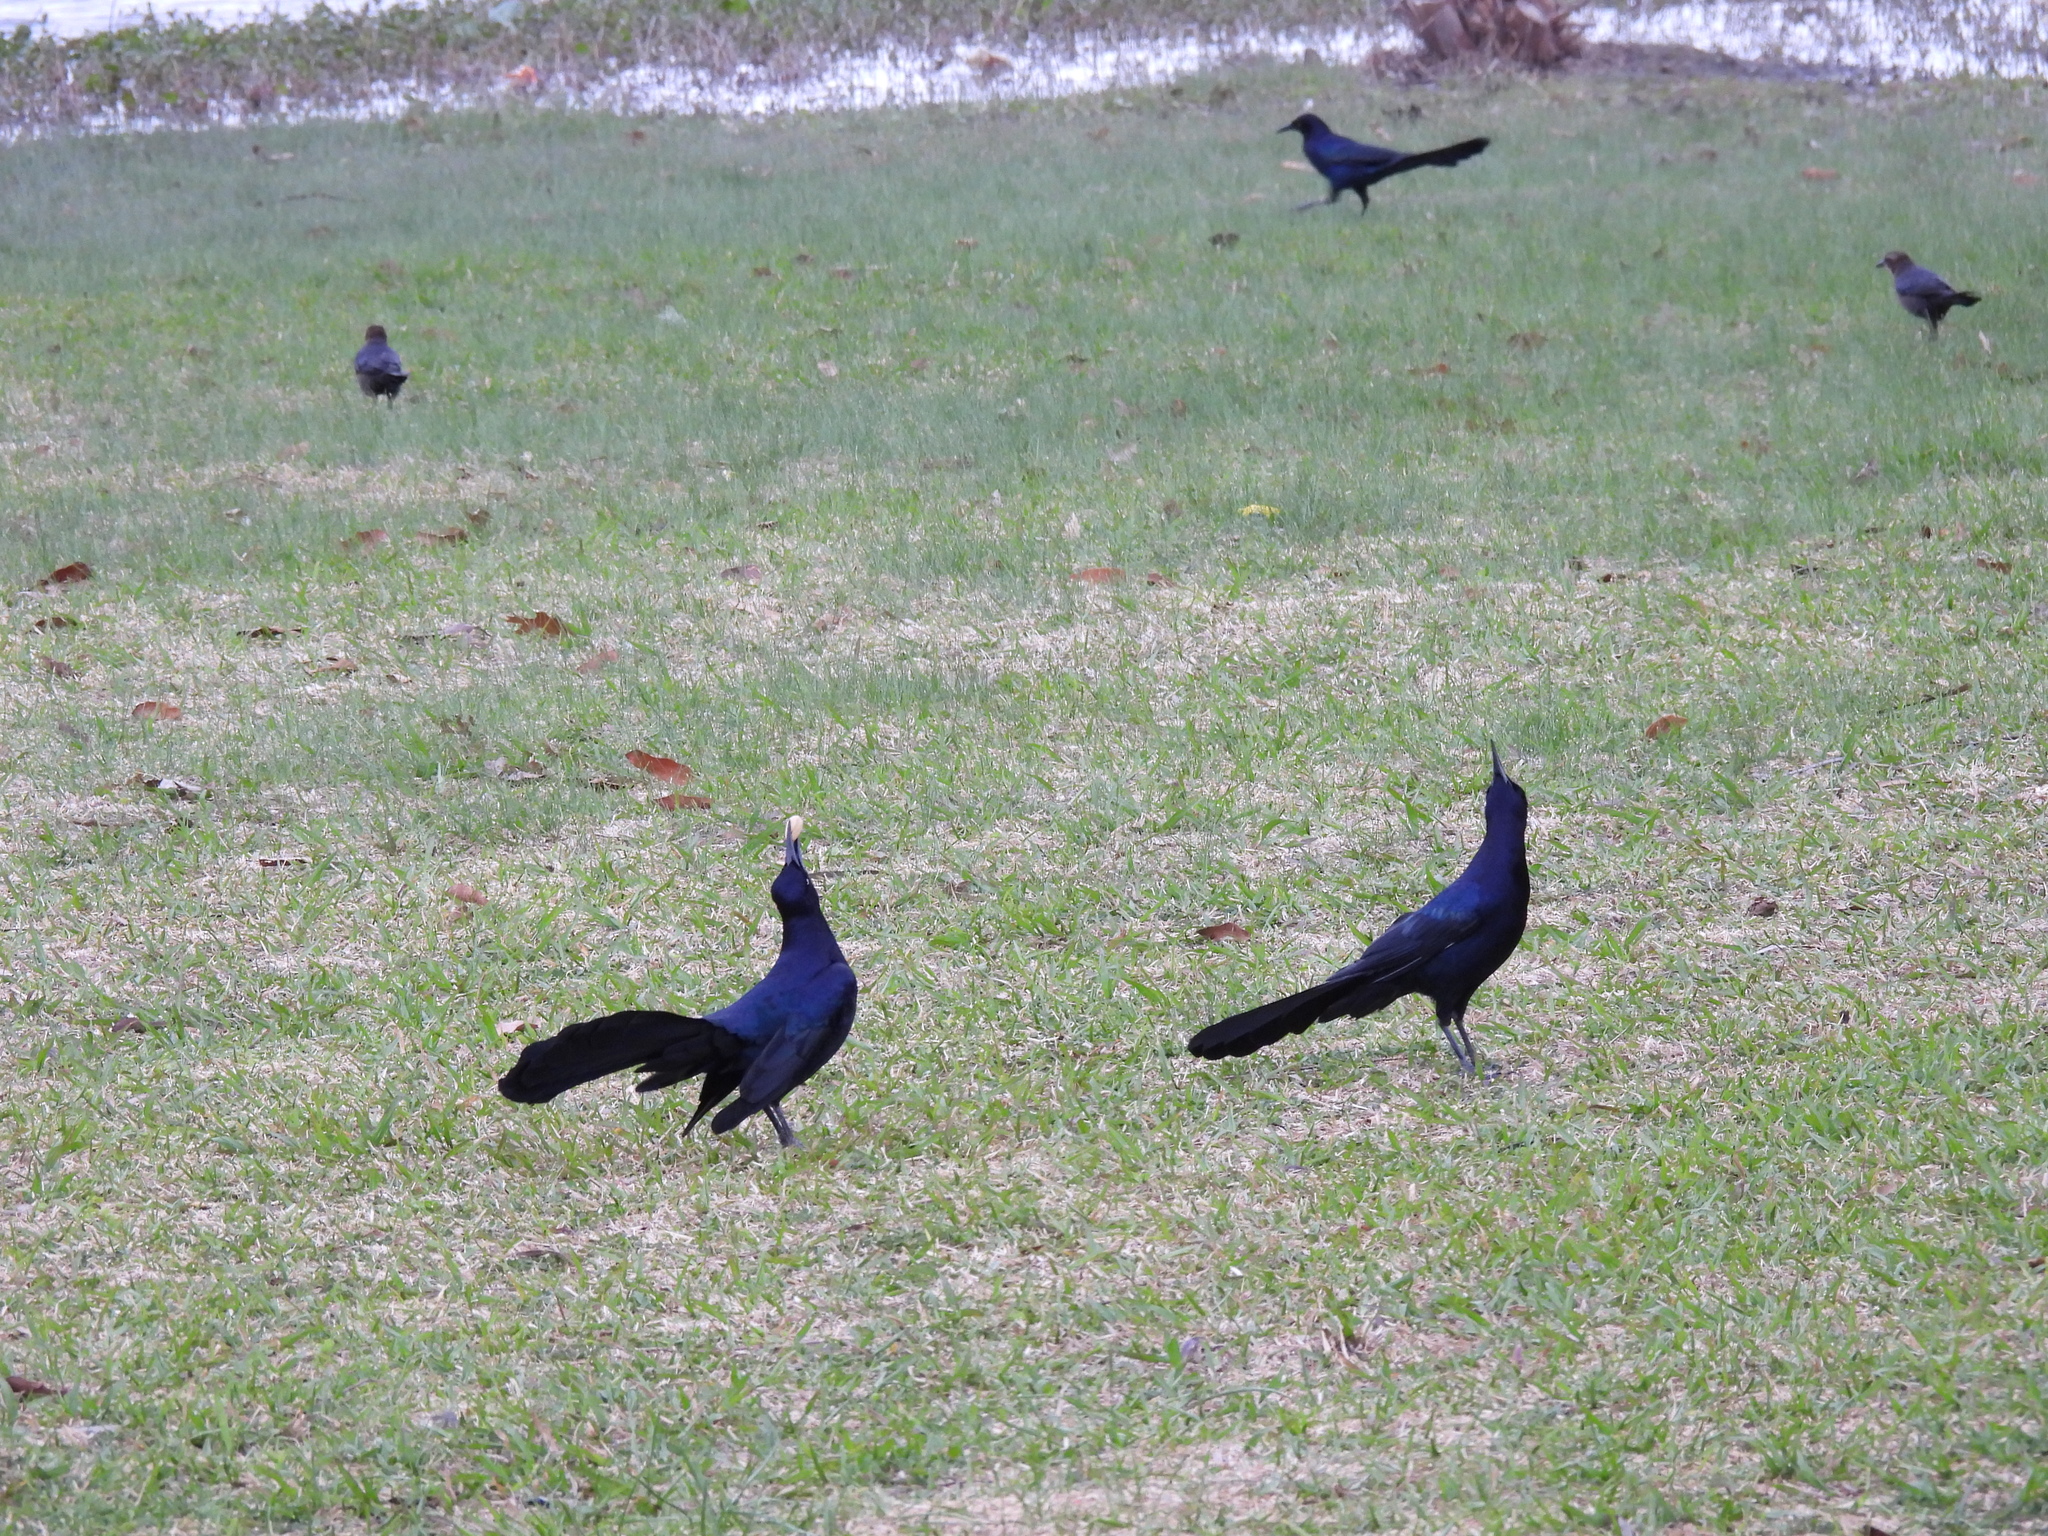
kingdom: Animalia
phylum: Chordata
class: Aves
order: Passeriformes
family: Icteridae
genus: Quiscalus
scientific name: Quiscalus mexicanus
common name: Great-tailed grackle
